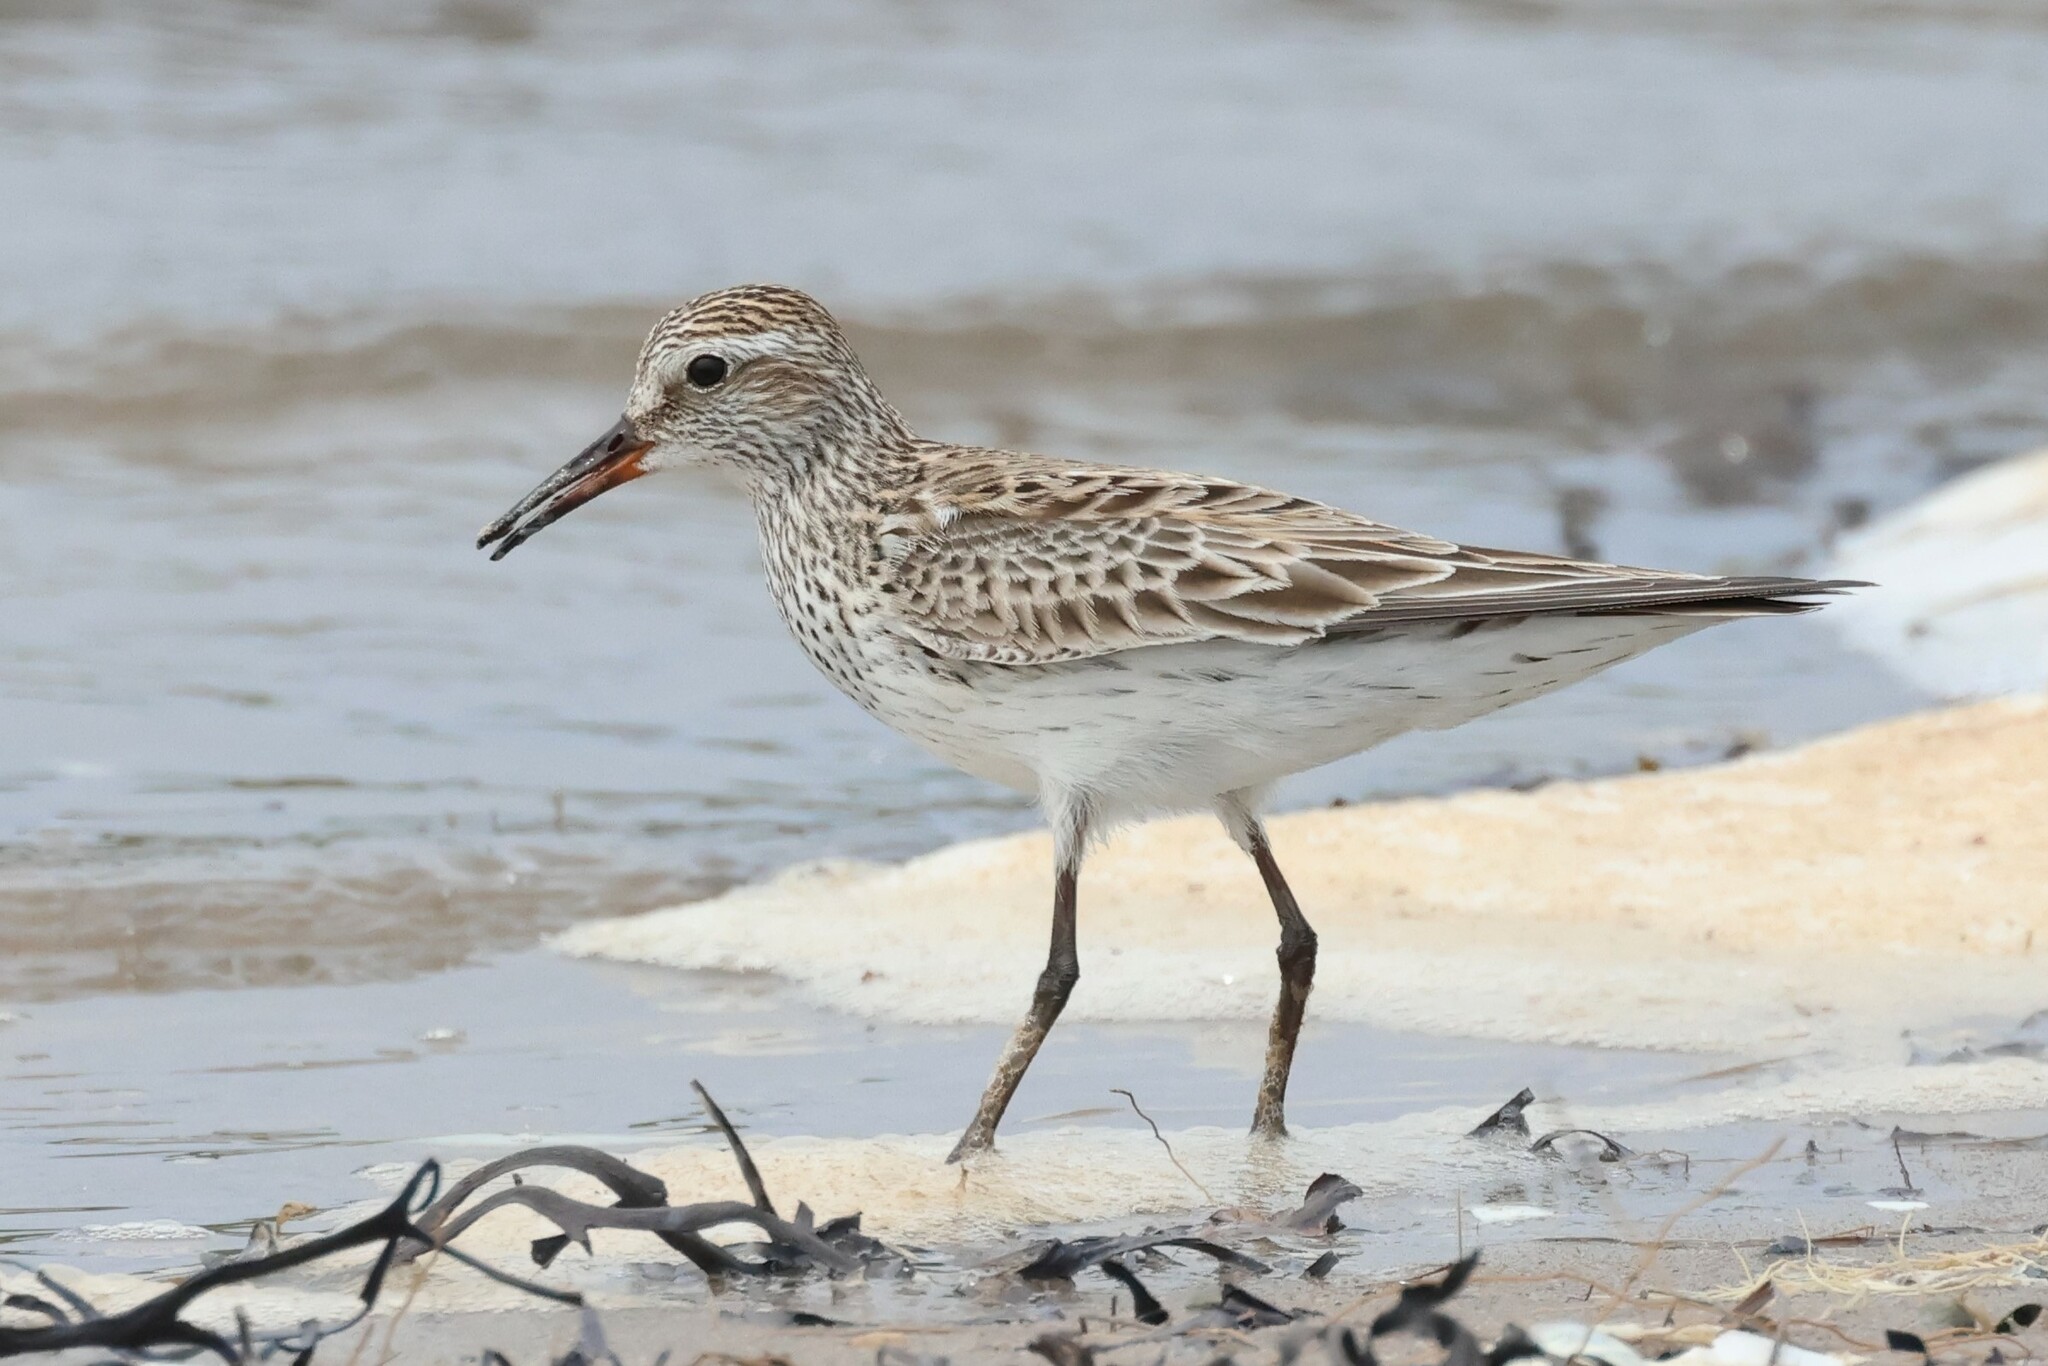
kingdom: Animalia
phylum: Chordata
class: Aves
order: Charadriiformes
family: Scolopacidae
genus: Calidris
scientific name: Calidris fuscicollis
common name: White-rumped sandpiper
